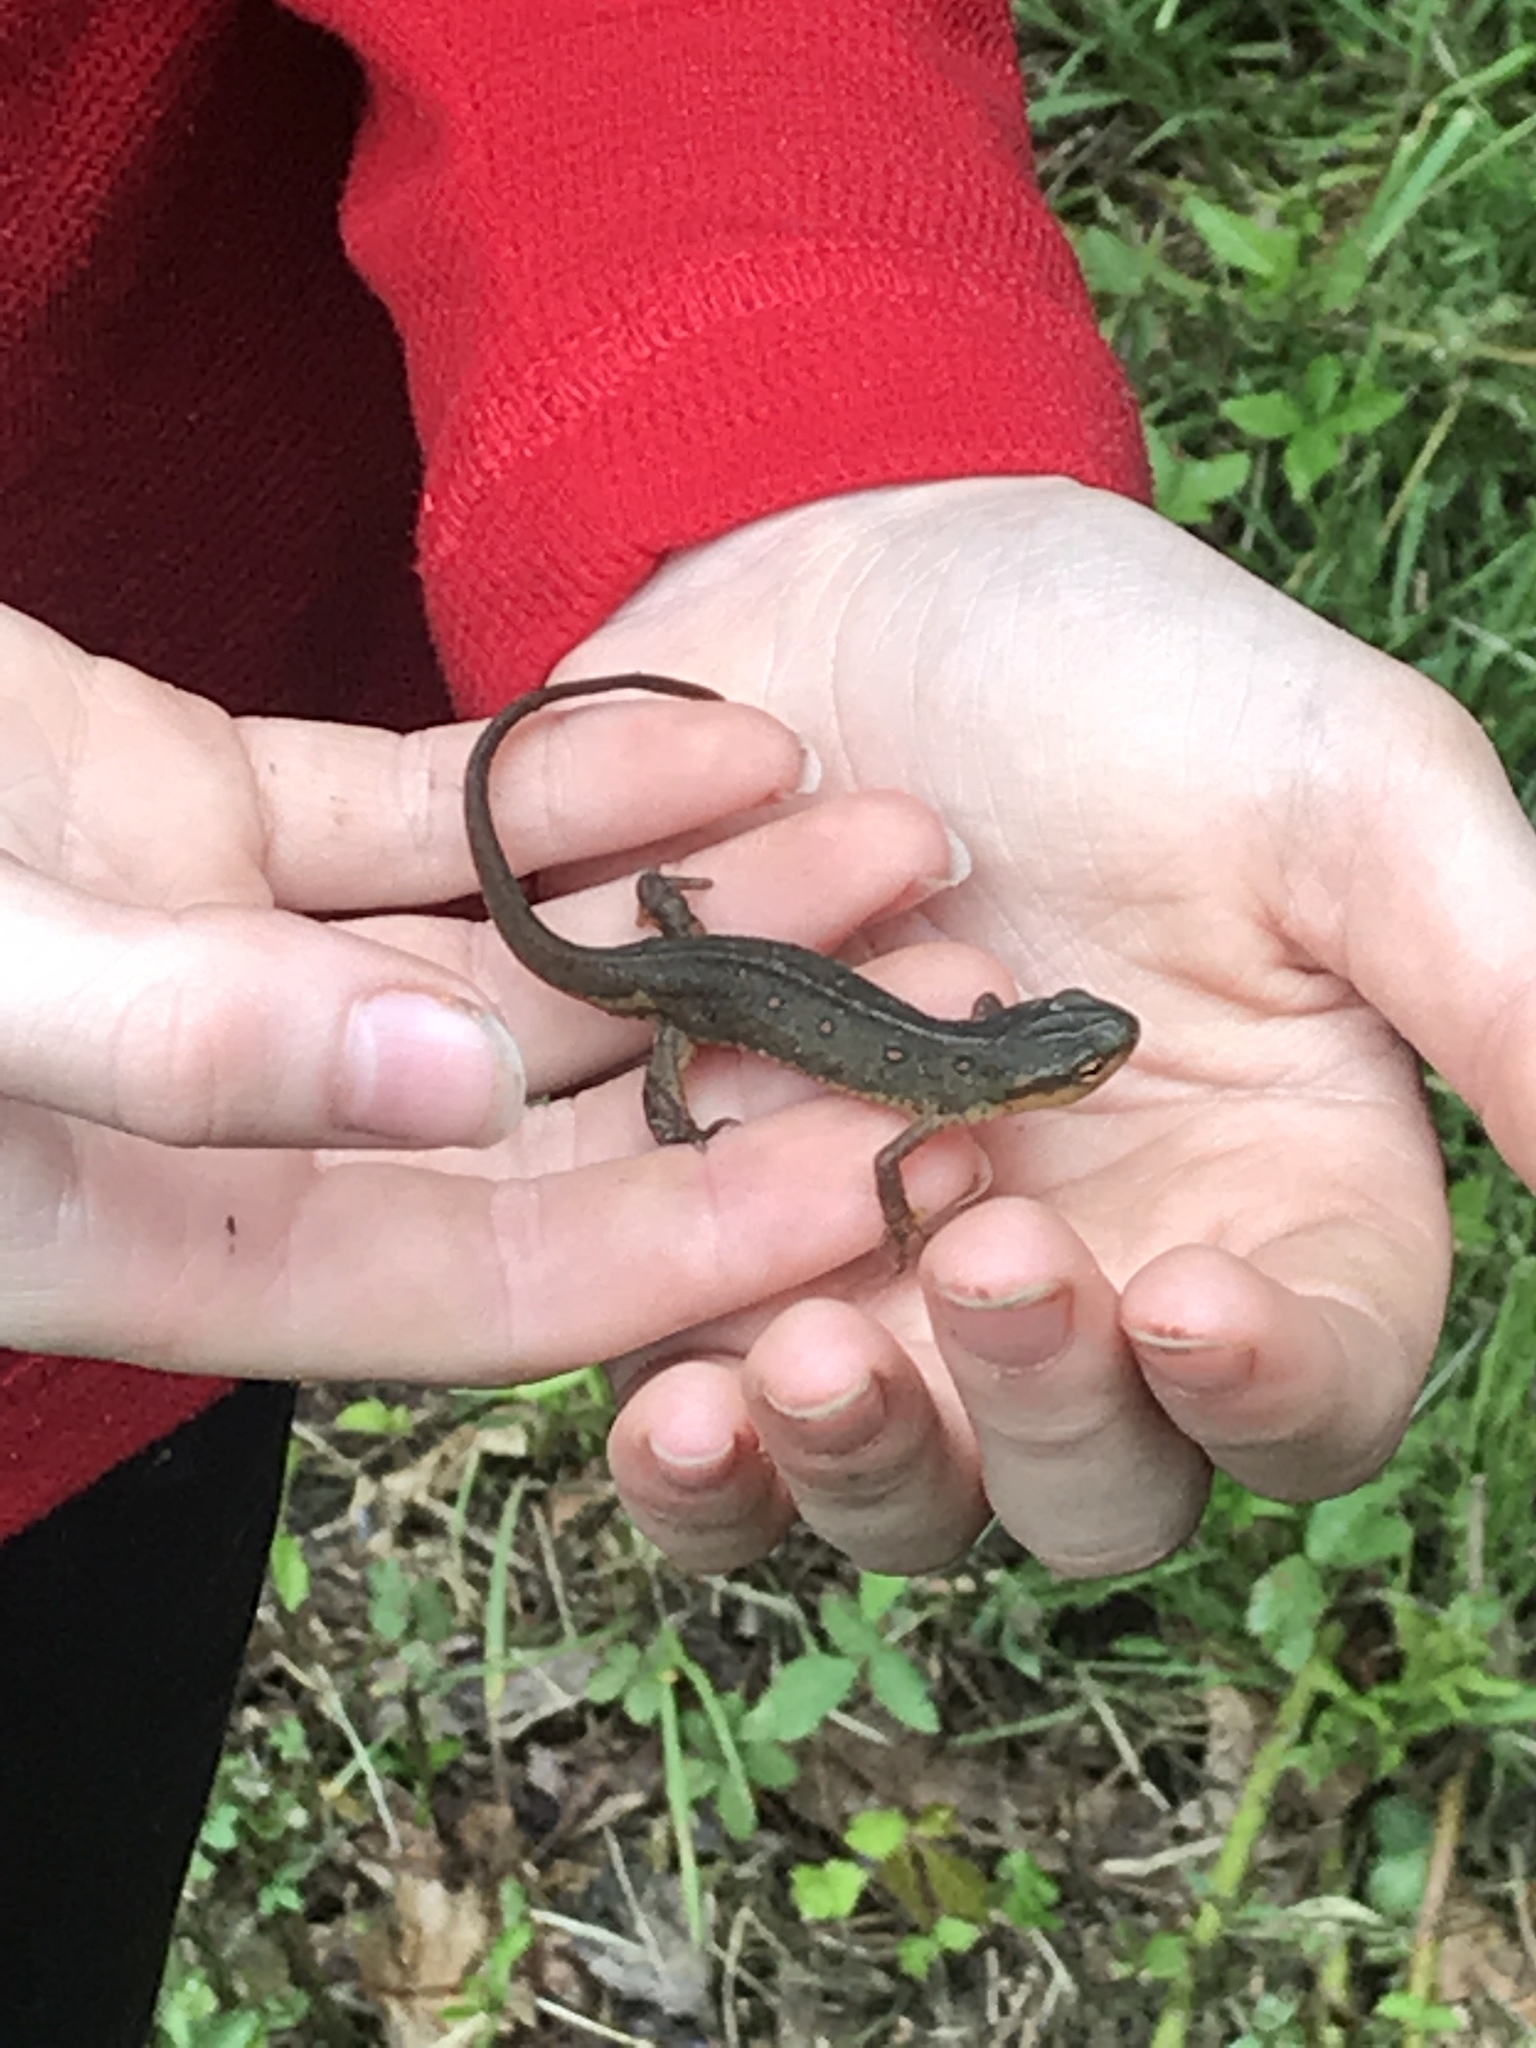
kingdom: Animalia
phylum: Chordata
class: Amphibia
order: Caudata
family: Salamandridae
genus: Notophthalmus
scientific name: Notophthalmus viridescens
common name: Eastern newt
